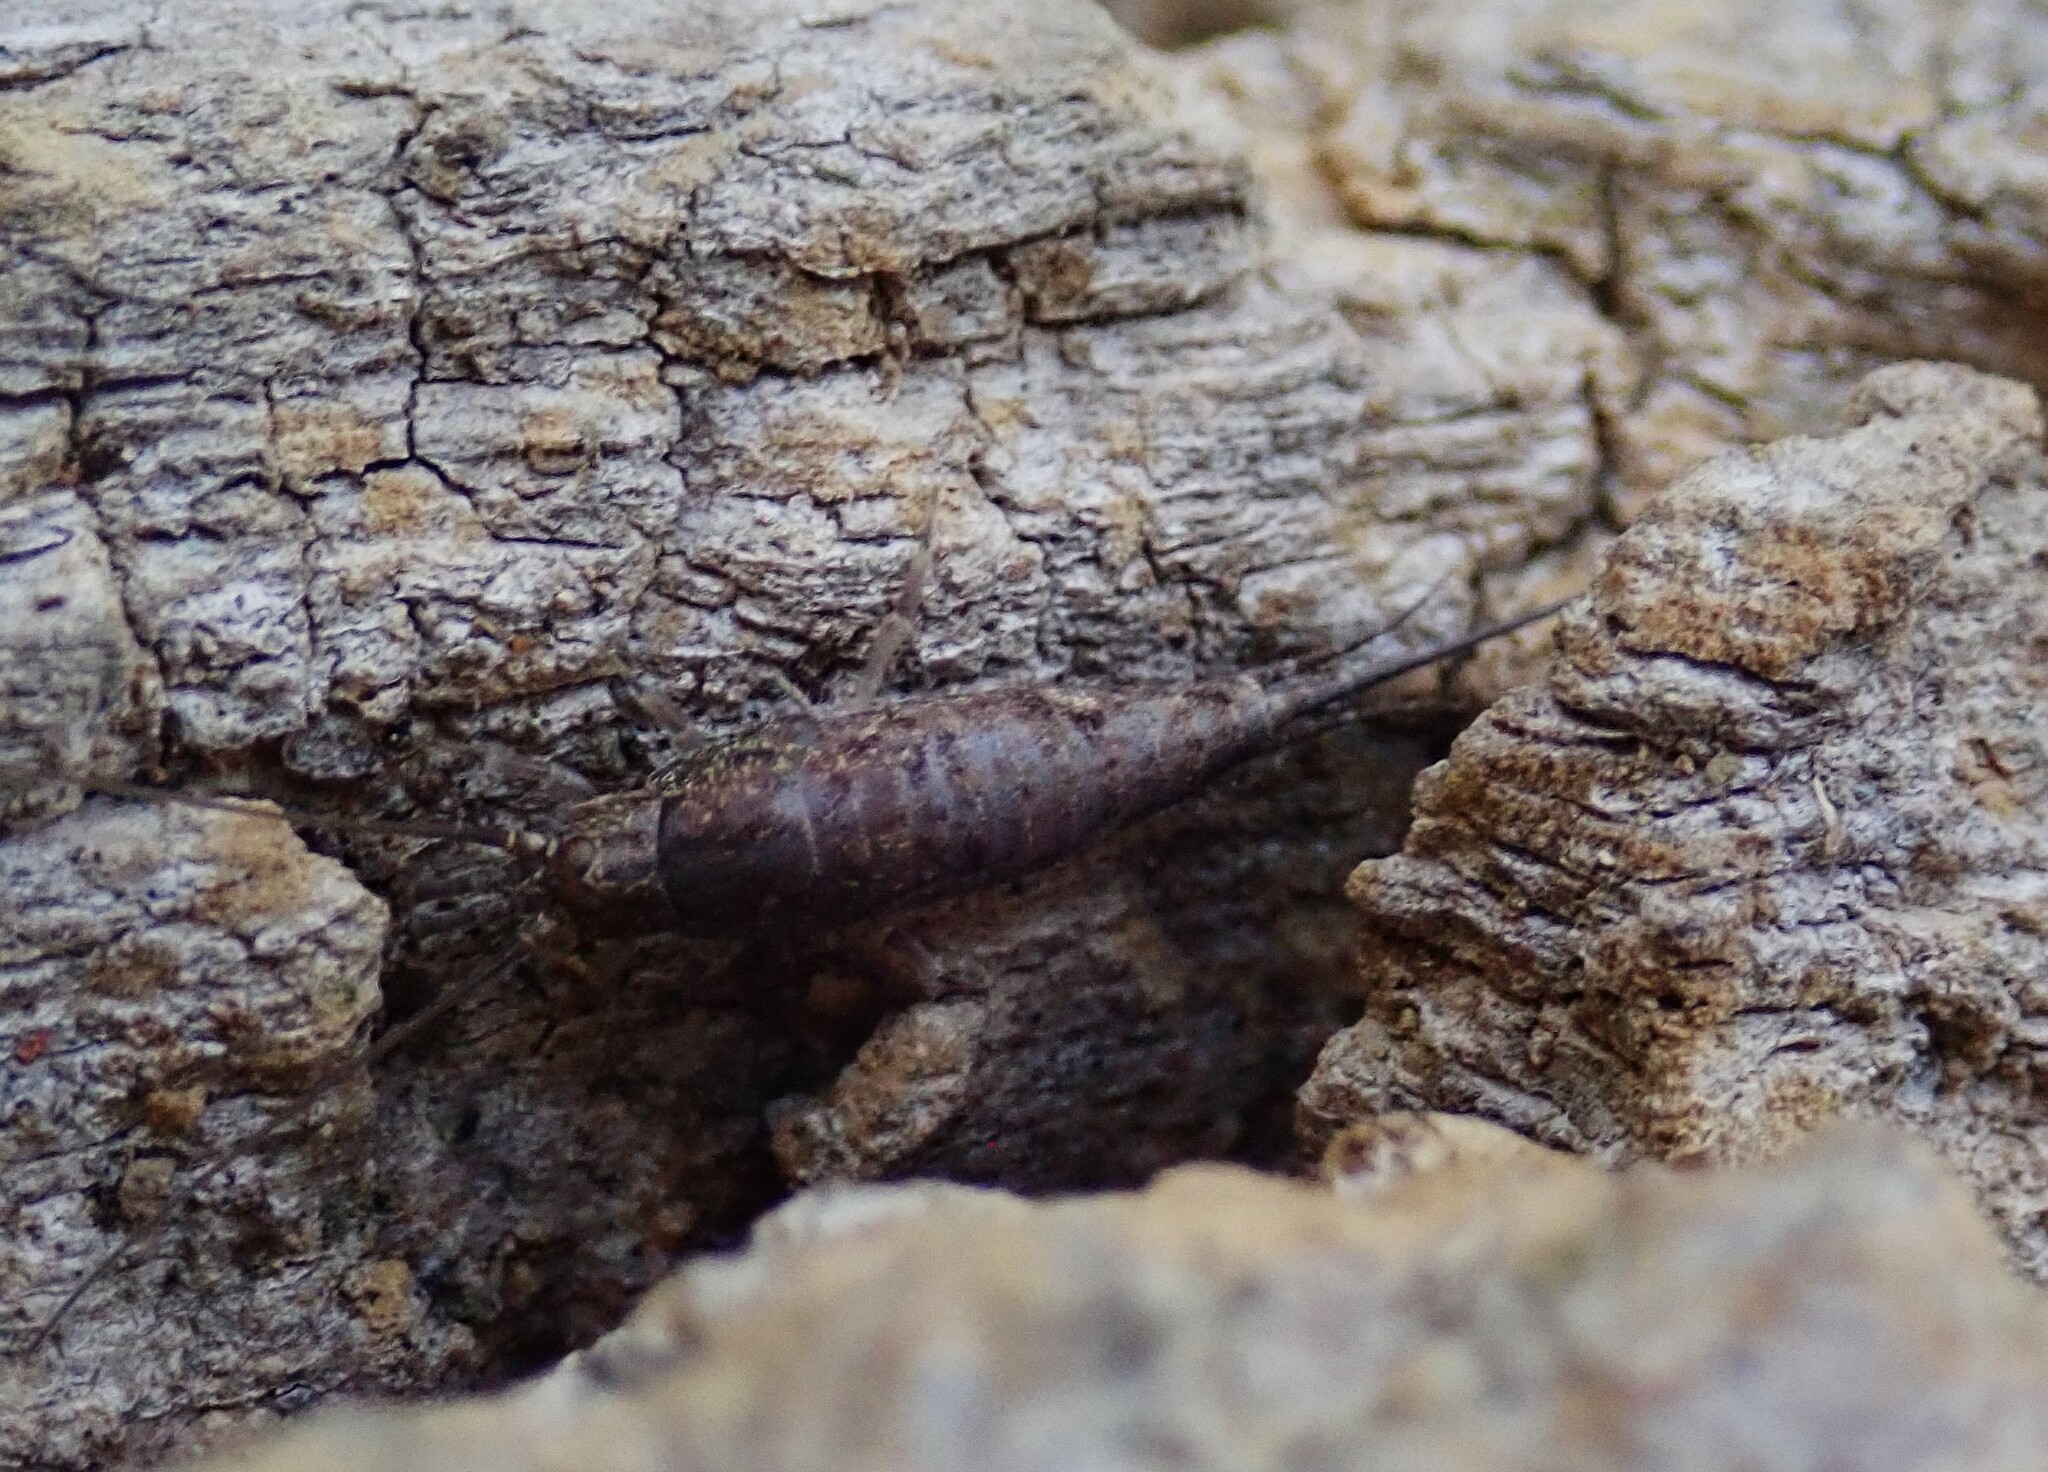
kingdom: Animalia
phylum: Arthropoda
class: Insecta
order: Archaeognatha
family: Machilidae
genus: Pedetontus
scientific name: Pedetontus saltator
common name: Jumping bristletail
